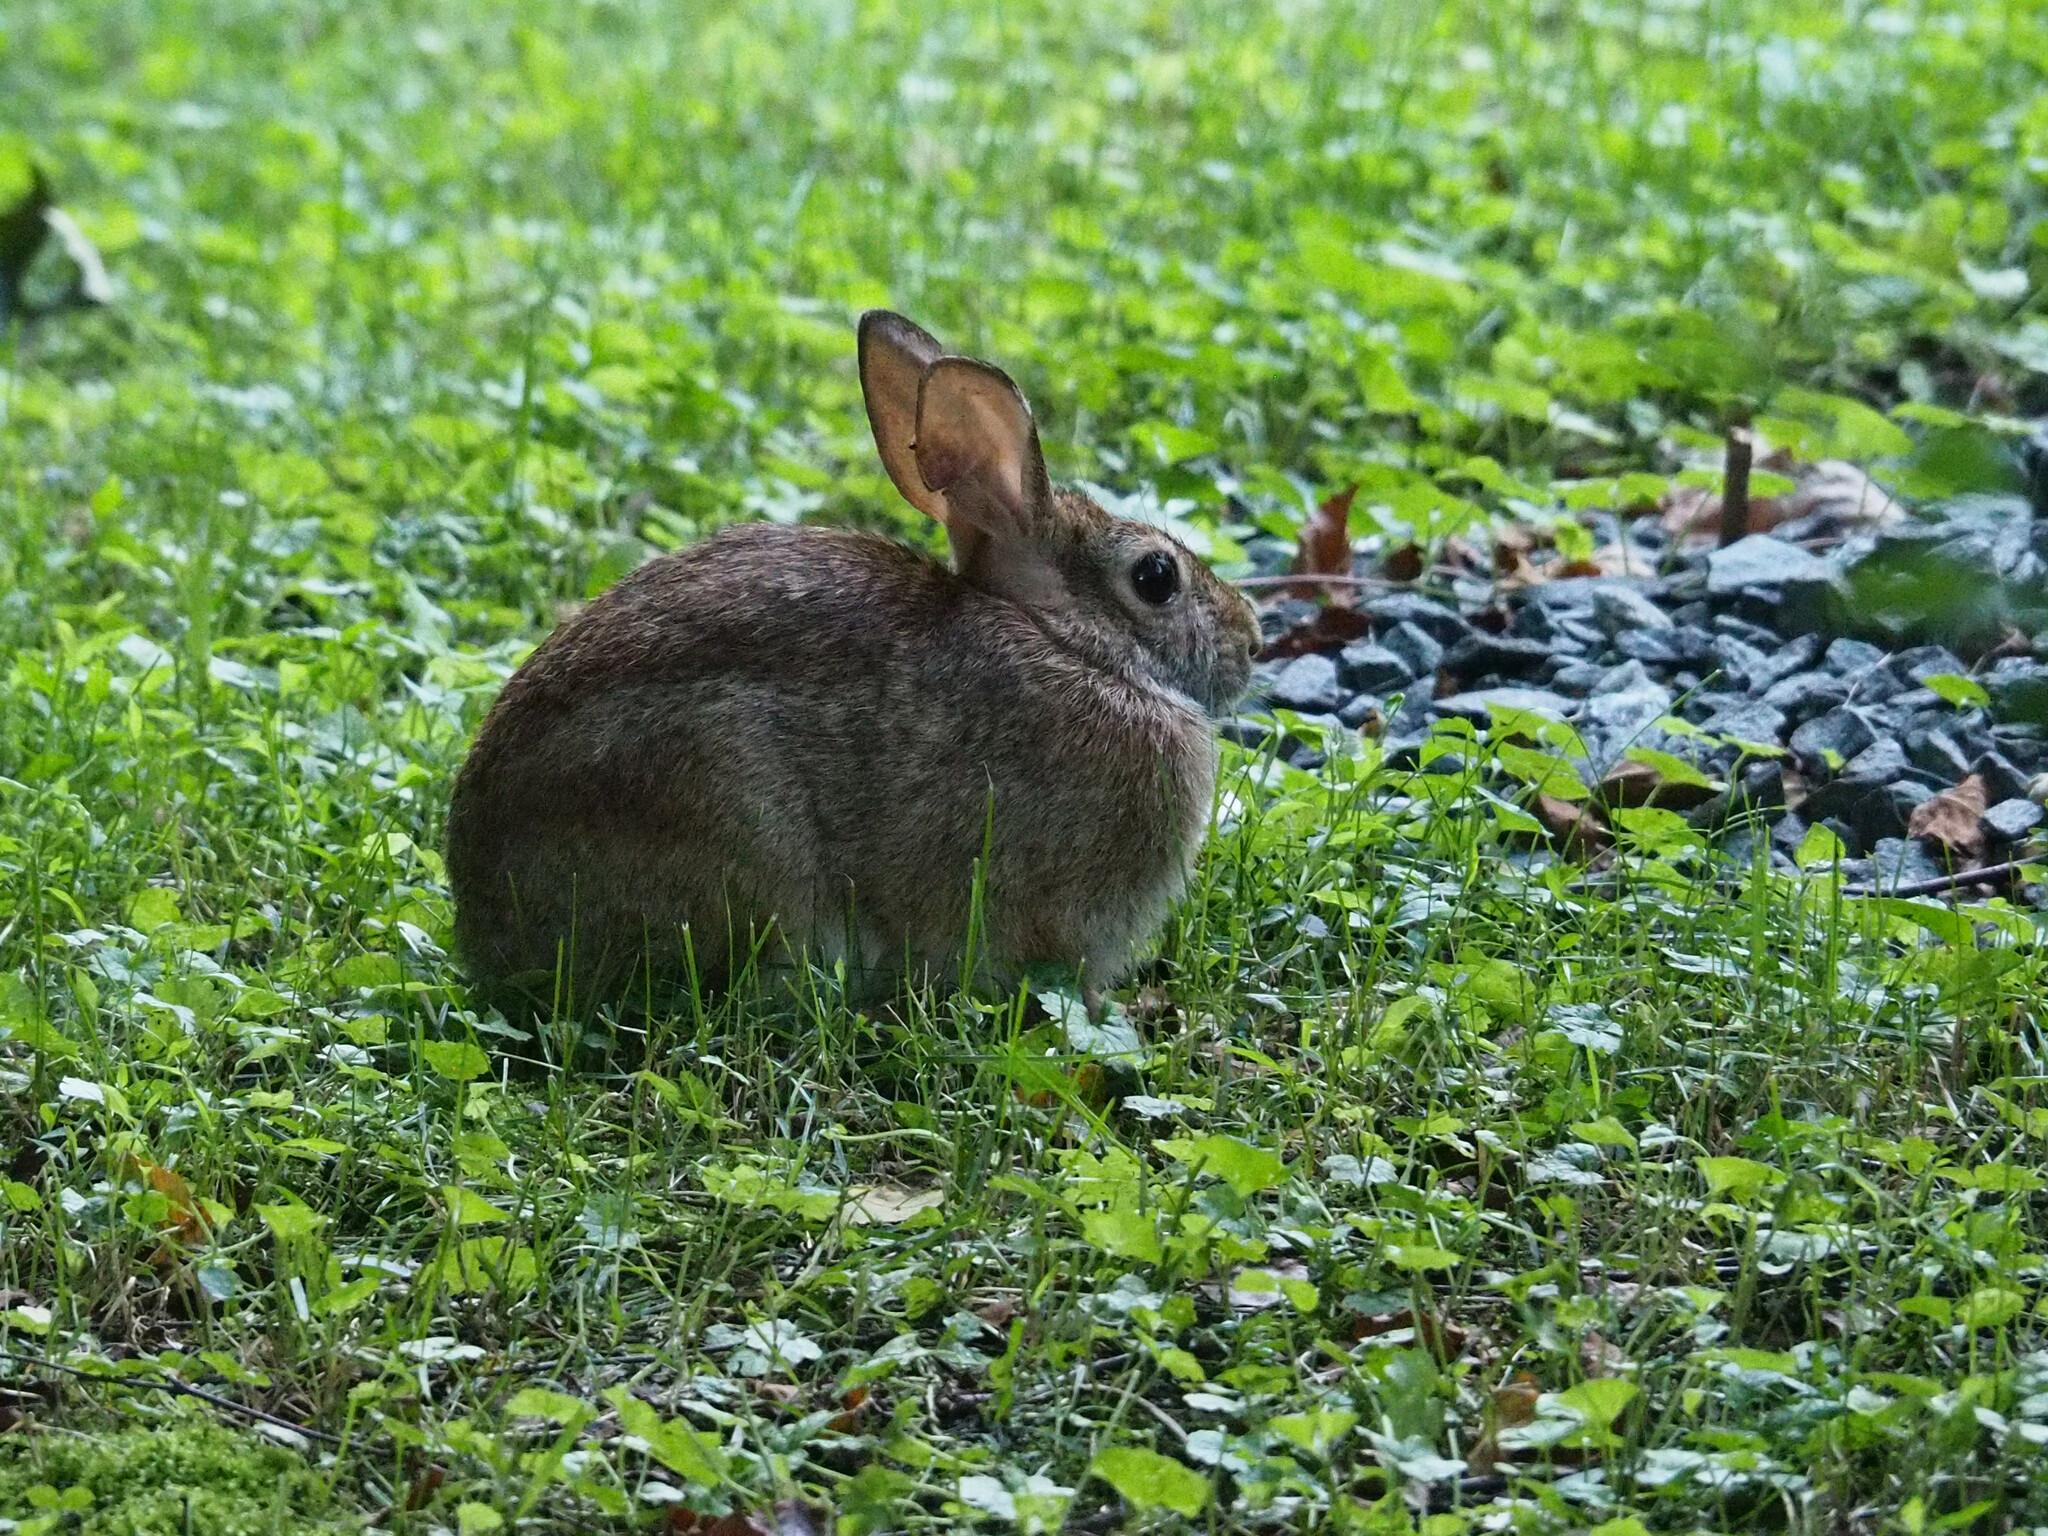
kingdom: Animalia
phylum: Chordata
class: Mammalia
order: Lagomorpha
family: Leporidae
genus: Sylvilagus
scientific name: Sylvilagus floridanus
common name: Eastern cottontail
